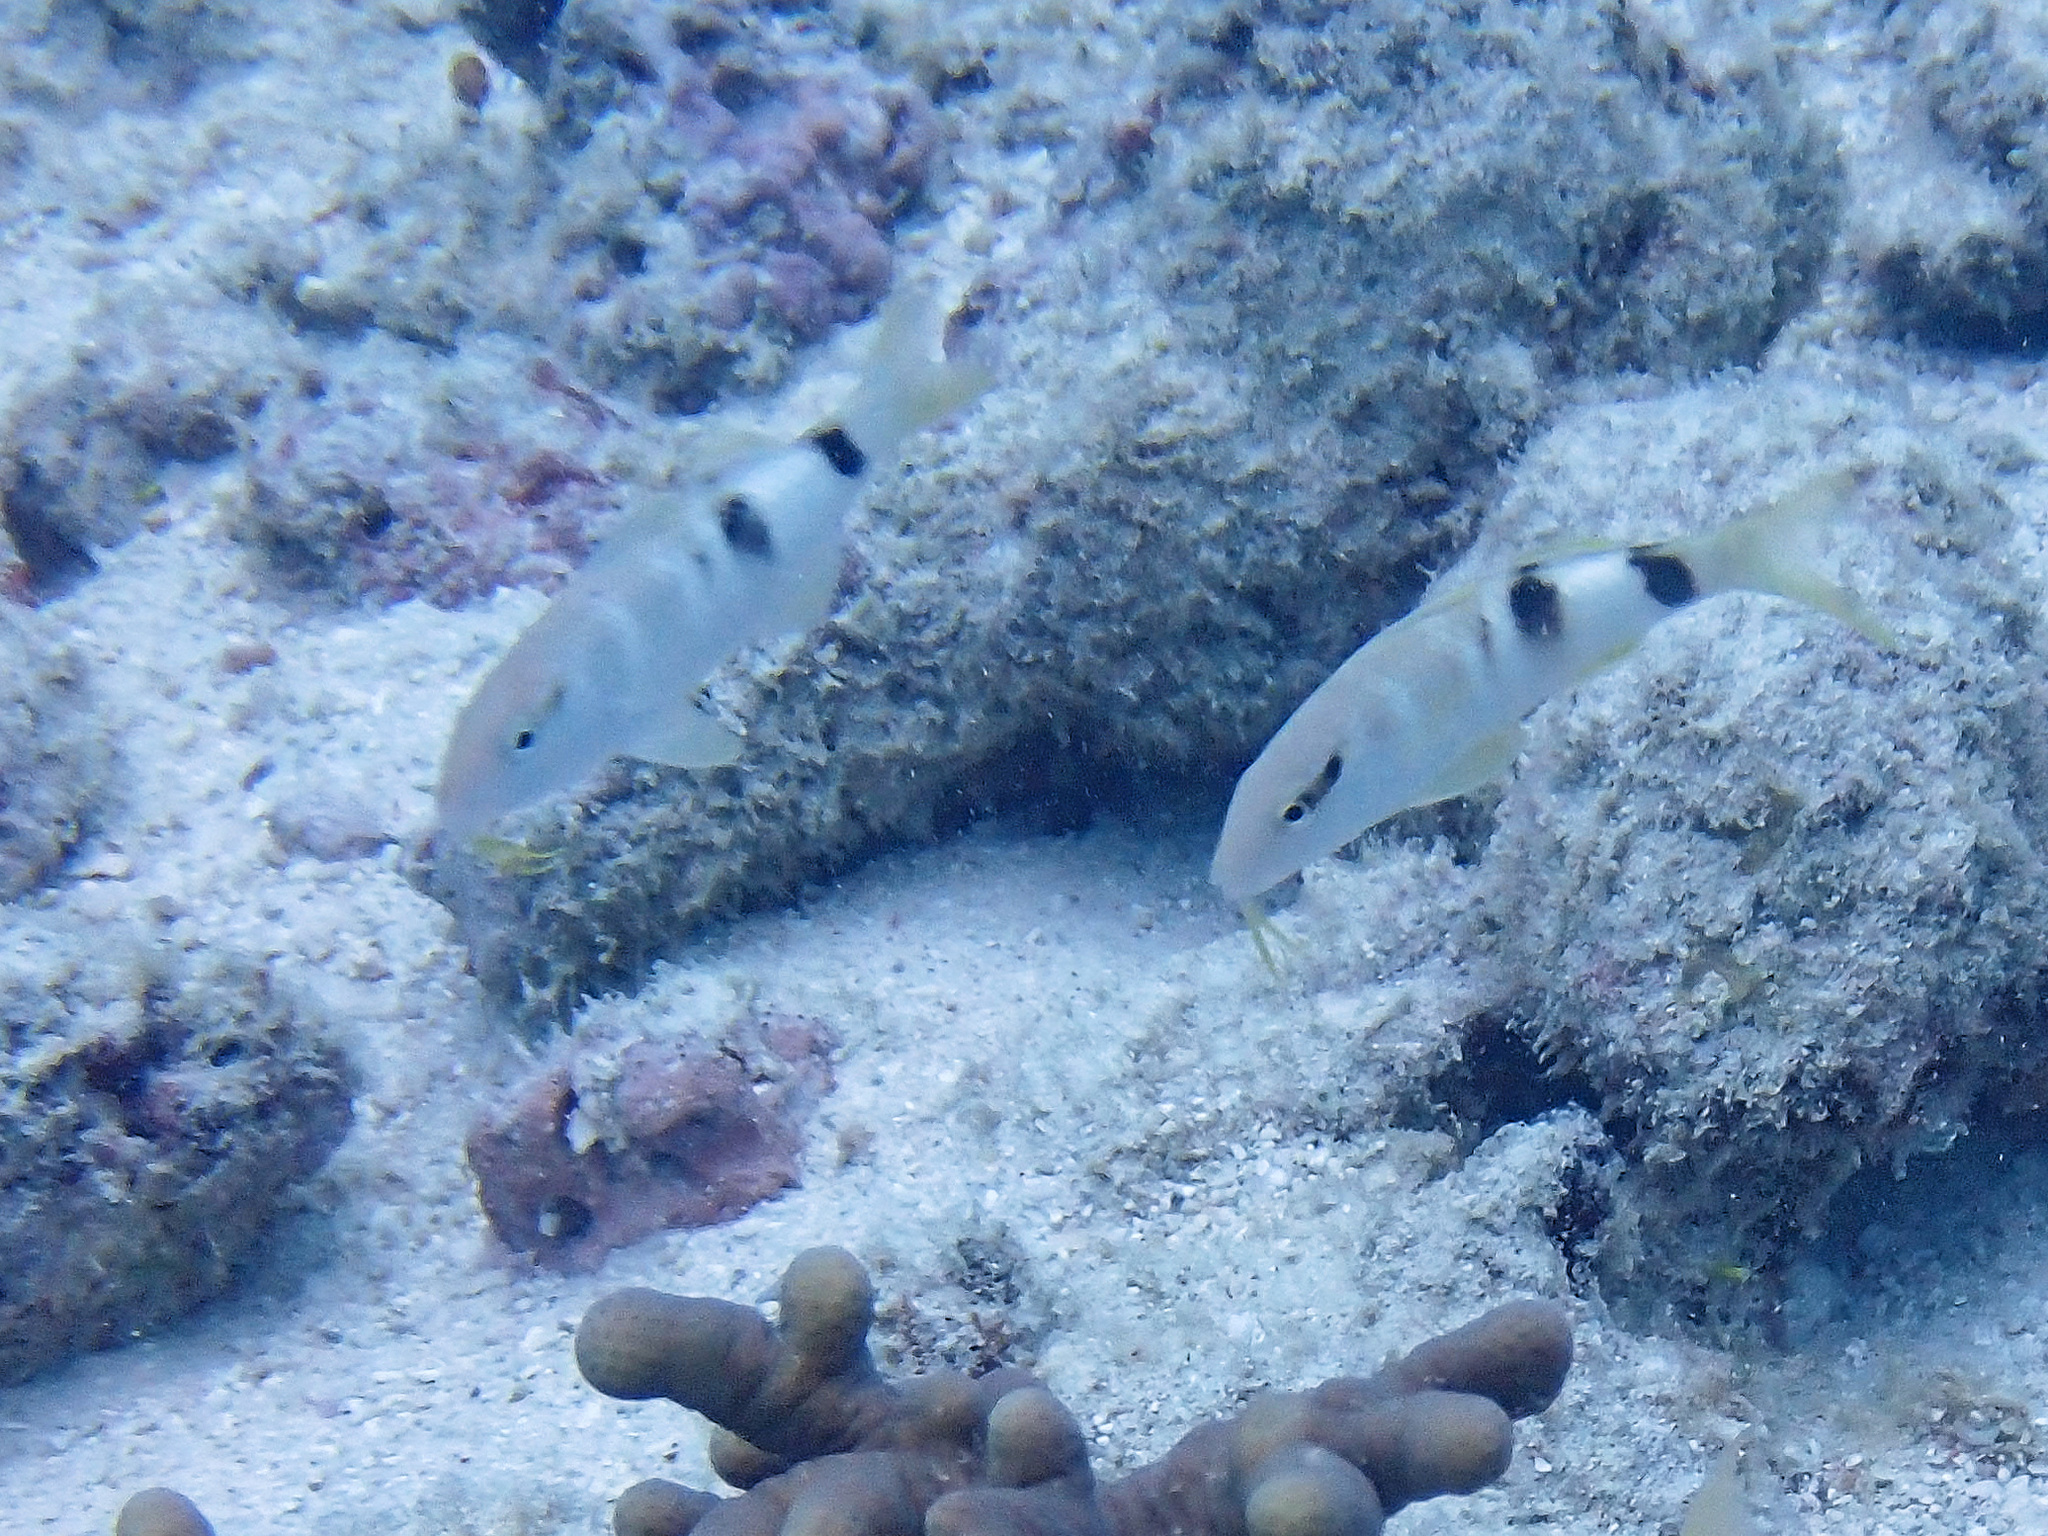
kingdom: Animalia
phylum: Chordata
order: Perciformes
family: Mullidae
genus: Parupeneus
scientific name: Parupeneus multifasciatus
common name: Manybar goatfish
